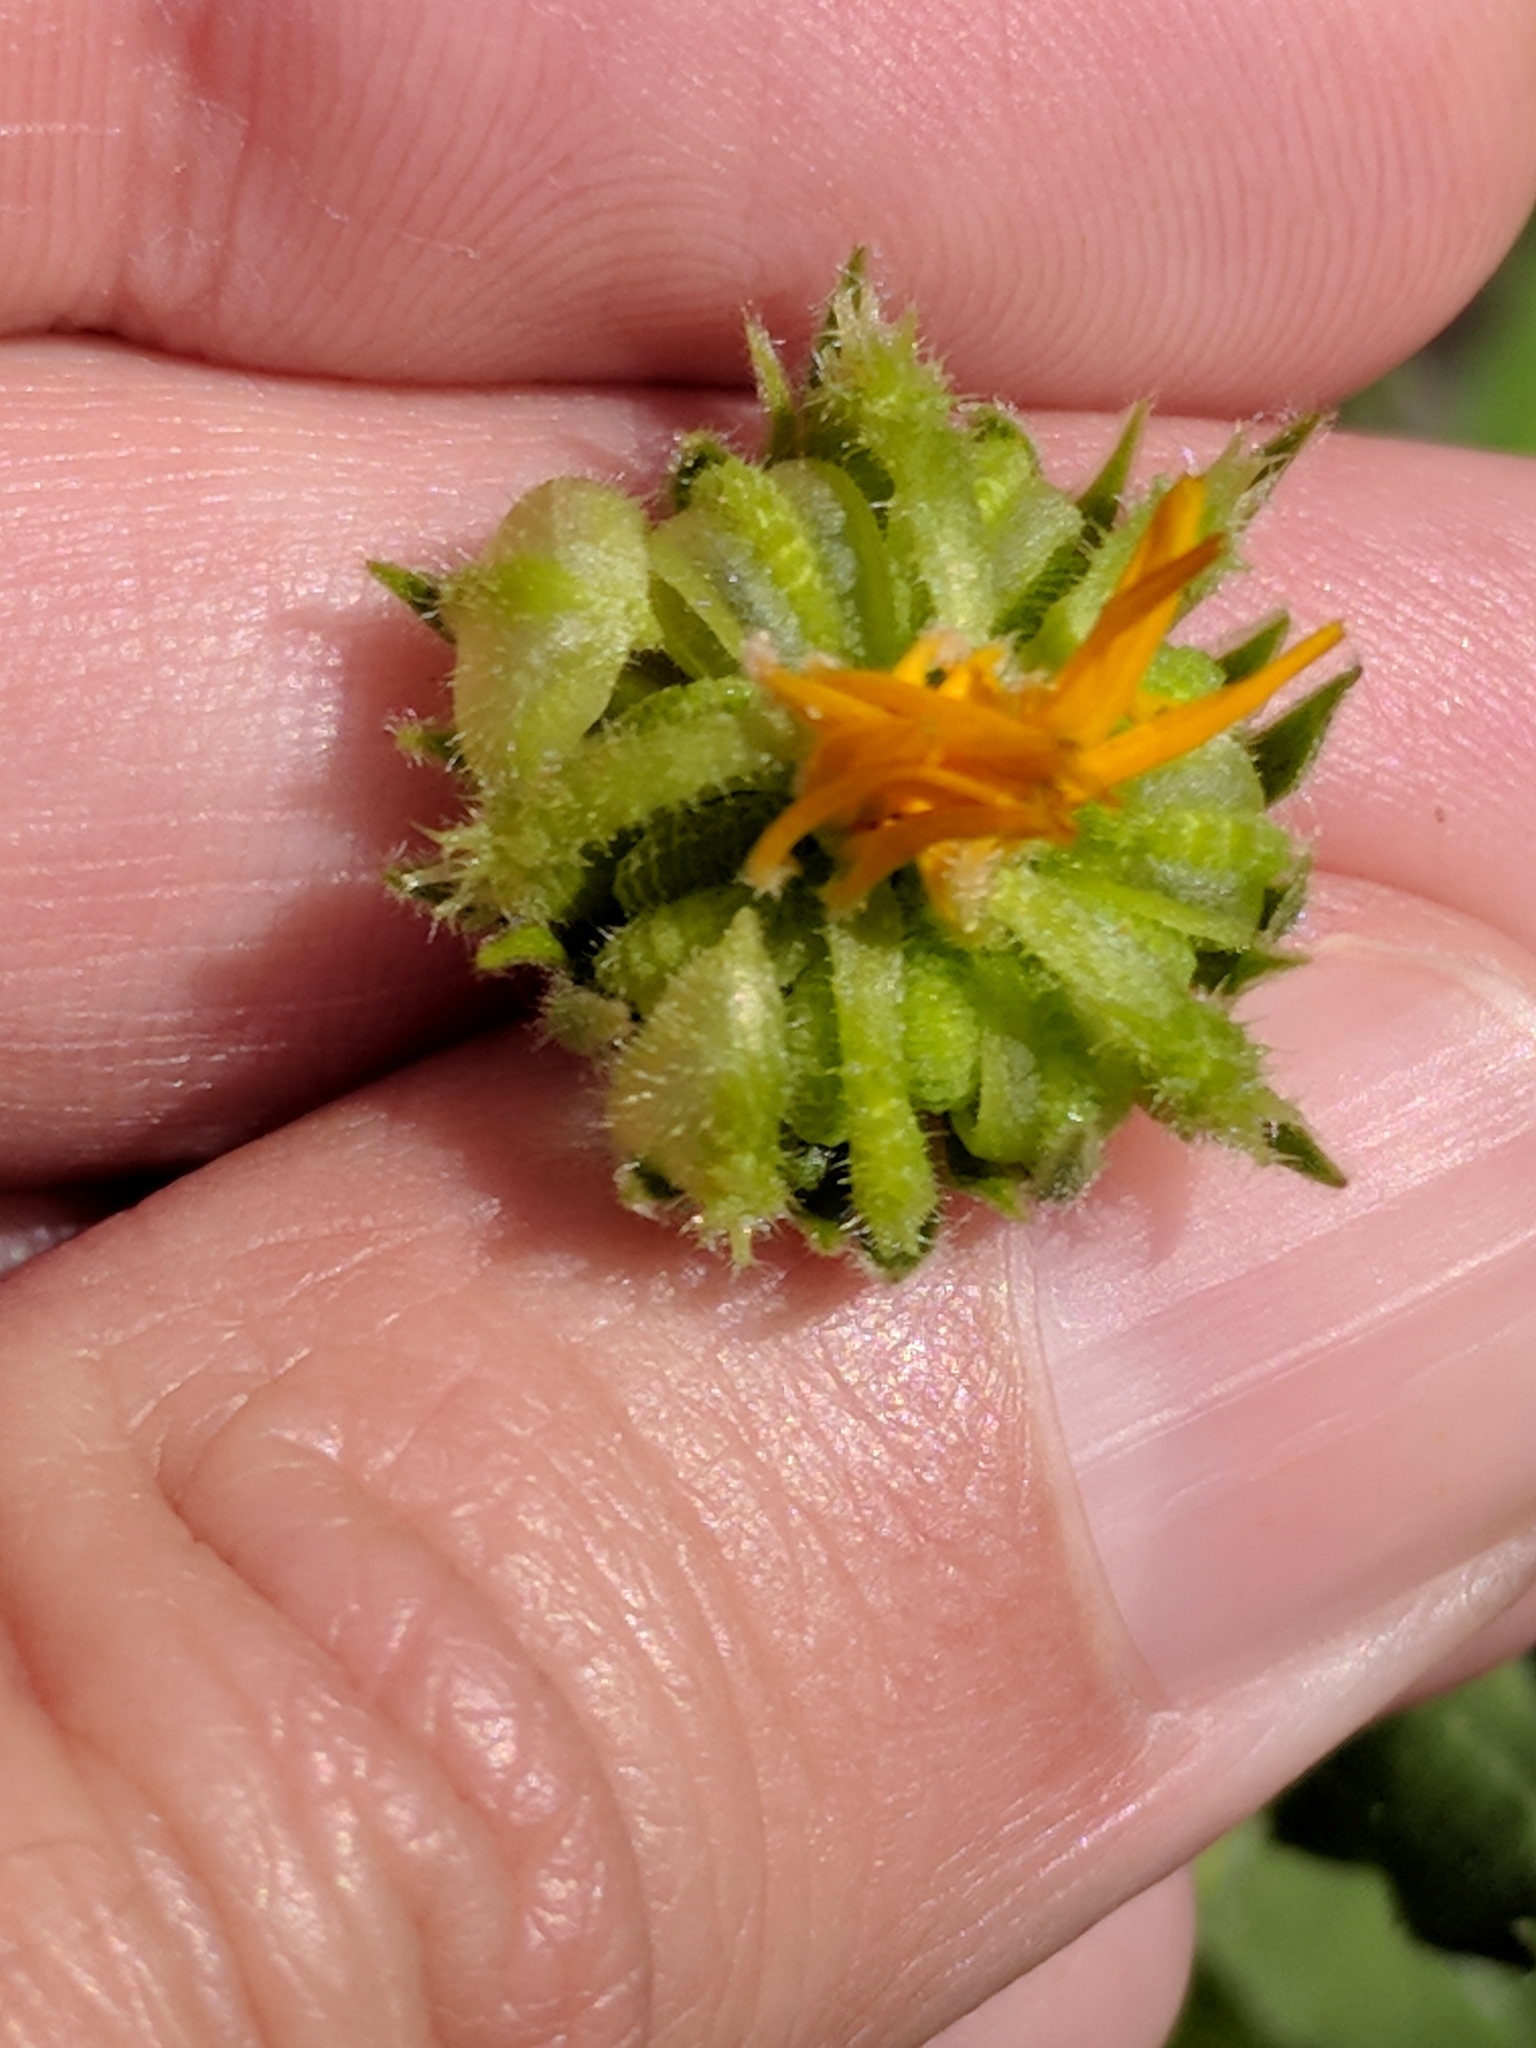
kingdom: Plantae
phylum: Tracheophyta
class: Magnoliopsida
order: Asterales
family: Asteraceae
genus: Calendula
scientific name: Calendula arvensis
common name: Field marigold
